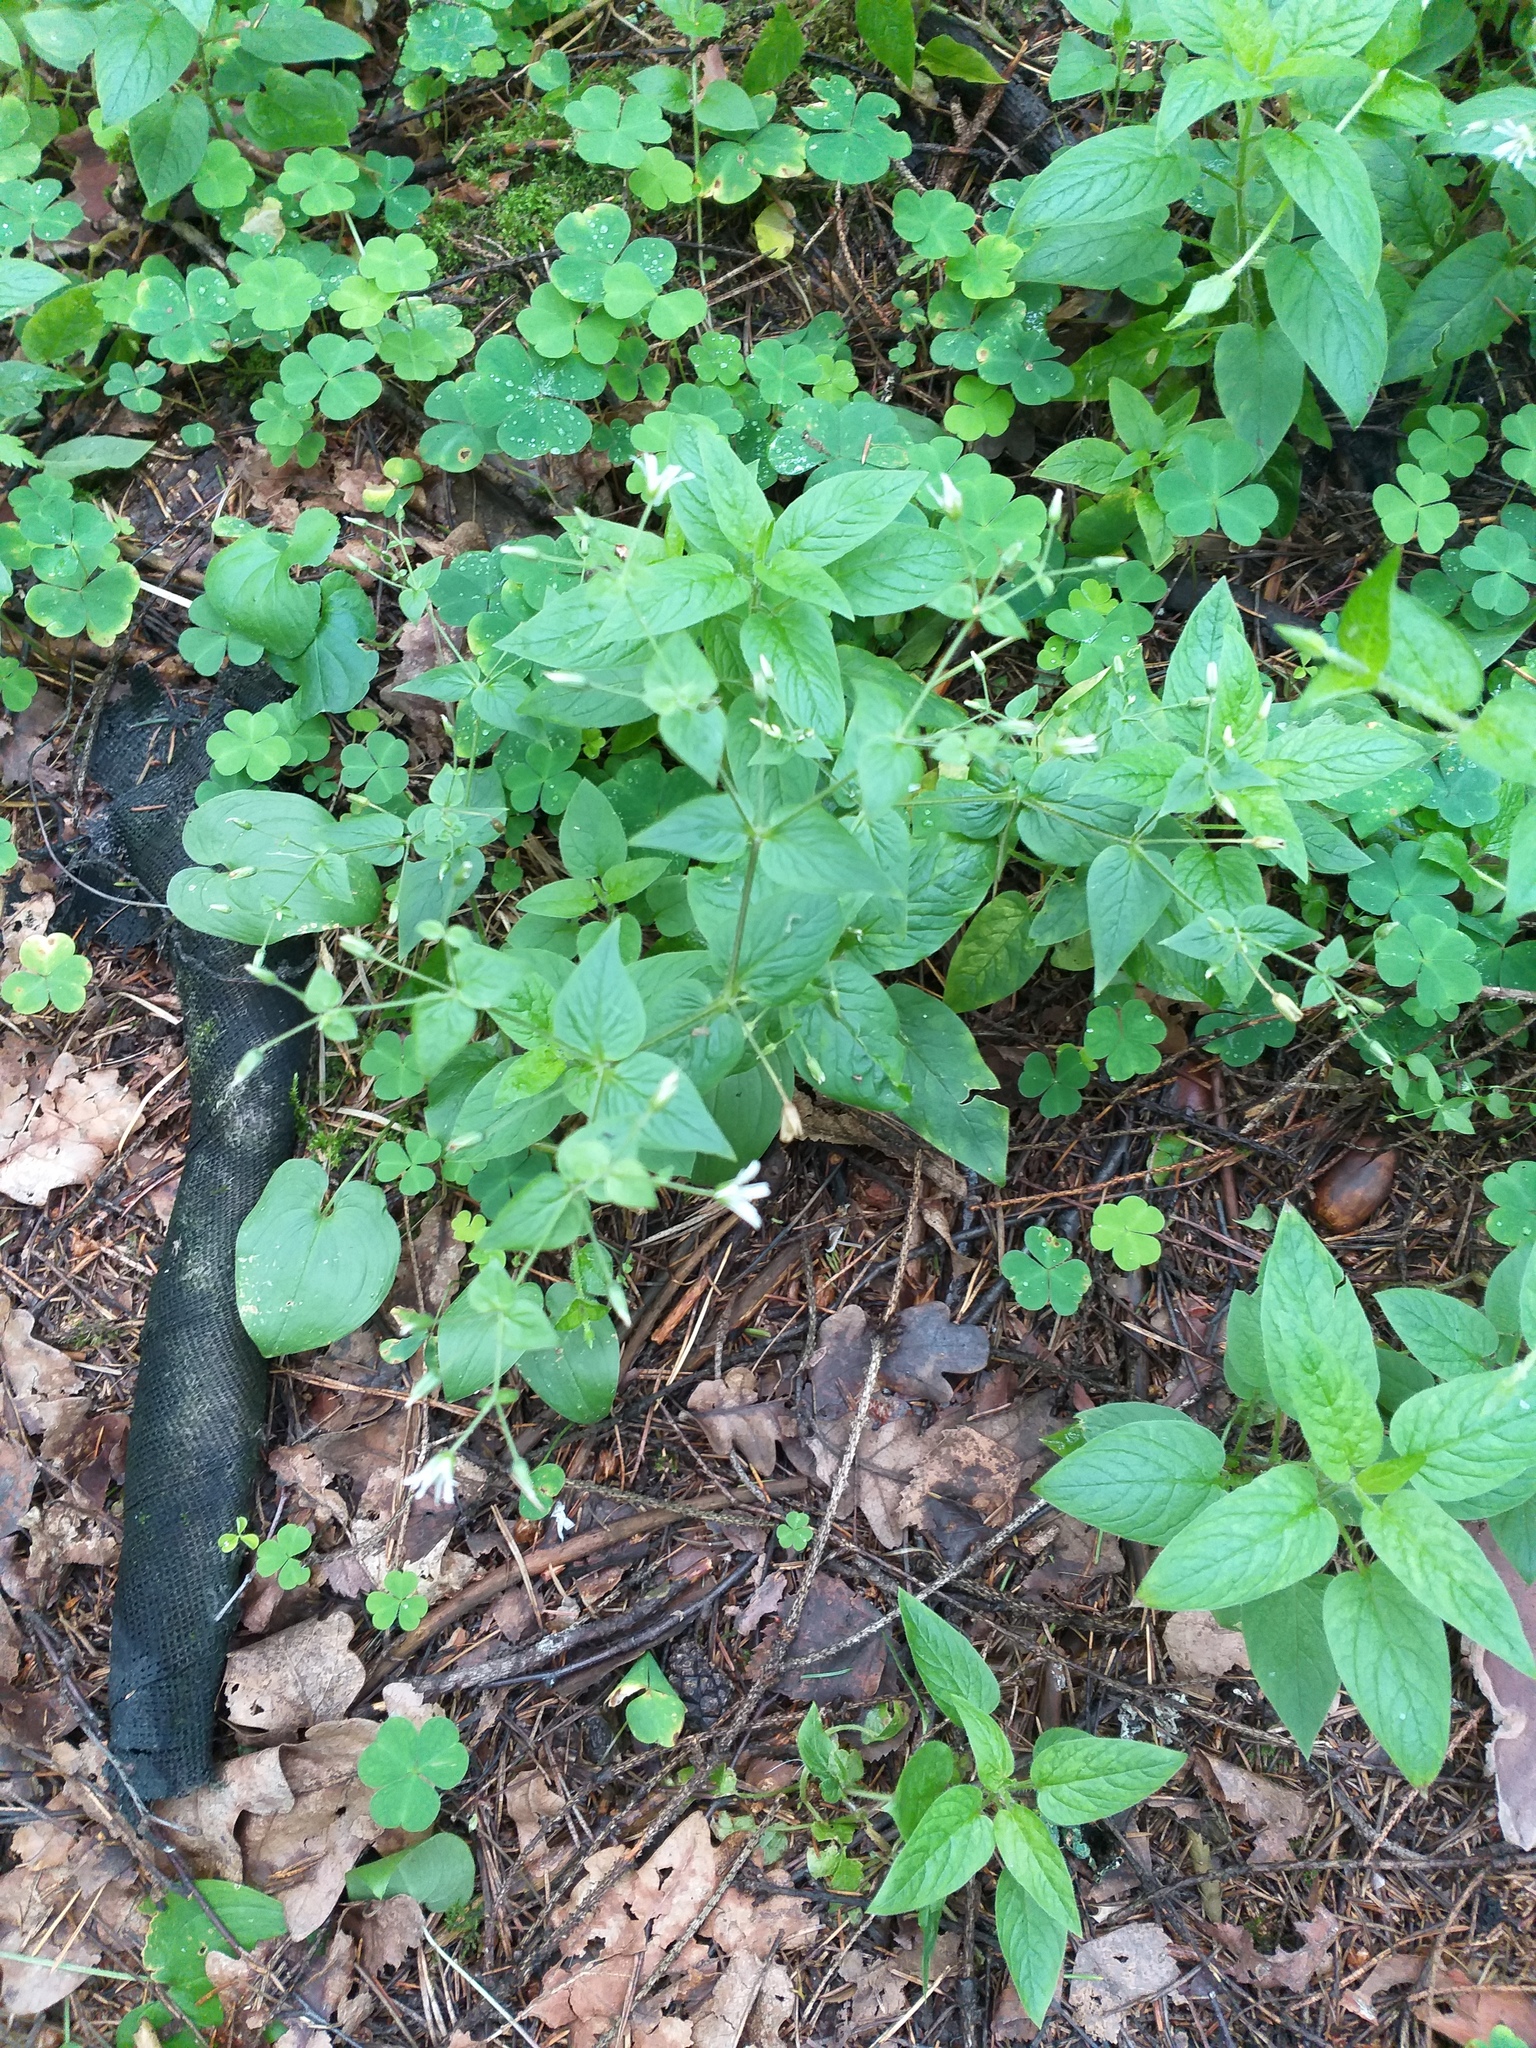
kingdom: Plantae
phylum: Tracheophyta
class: Magnoliopsida
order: Caryophyllales
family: Caryophyllaceae
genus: Stellaria
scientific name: Stellaria nemorum
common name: Wood stitchwort
